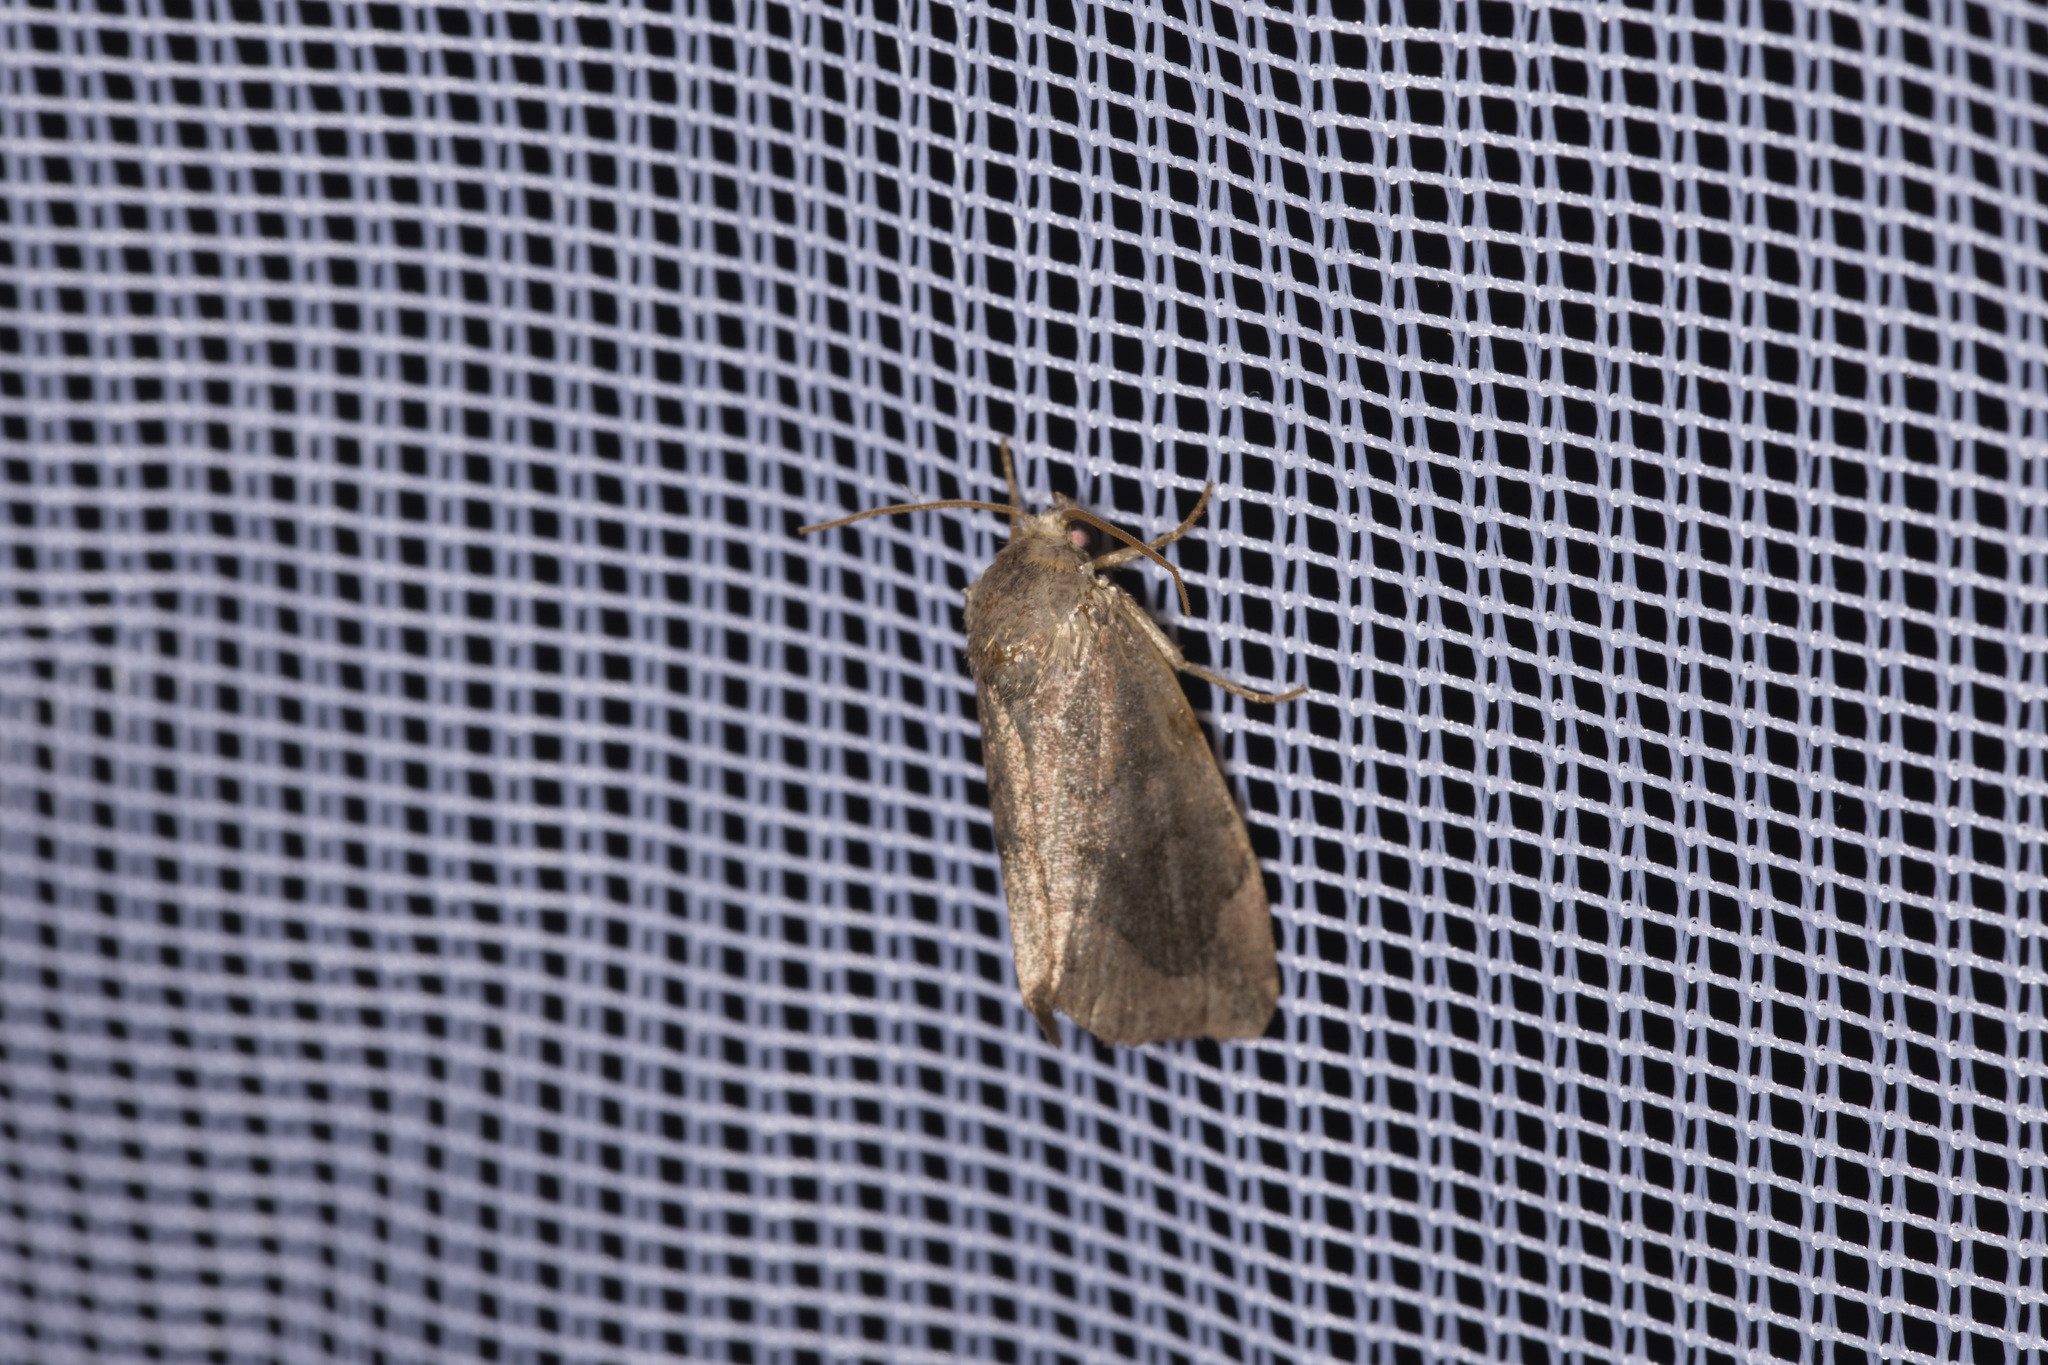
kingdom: Animalia
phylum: Arthropoda
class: Insecta
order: Lepidoptera
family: Noctuidae
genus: Cosmia
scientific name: Cosmia pyralina
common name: Lunar-spotted pinion
